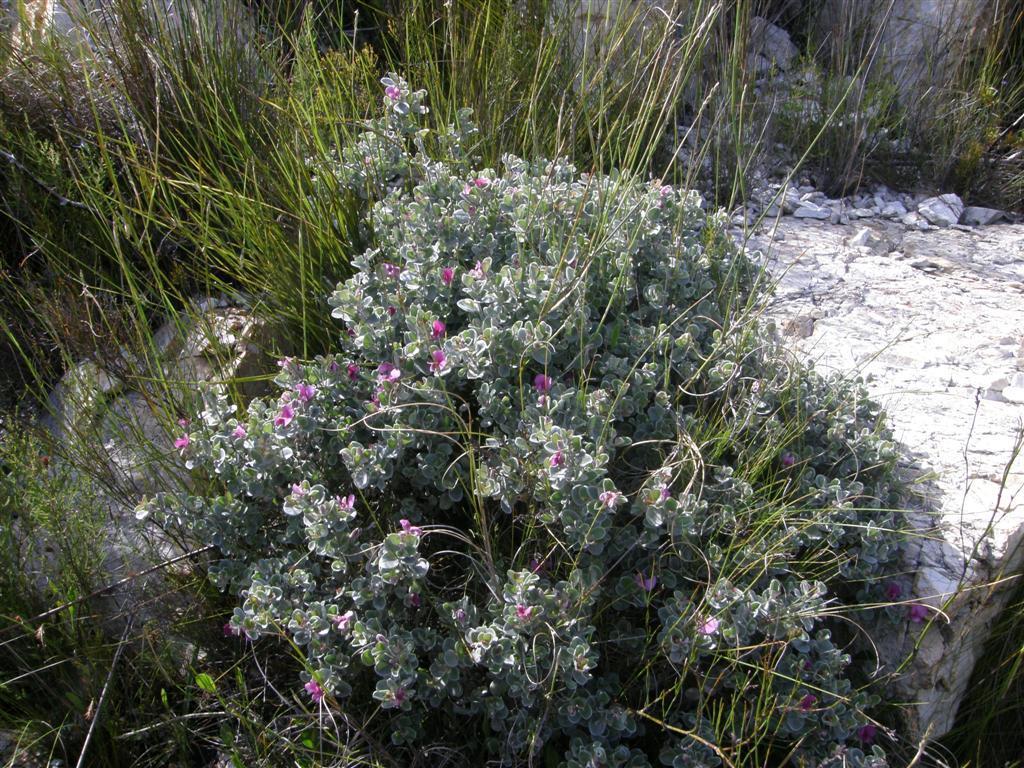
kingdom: Plantae
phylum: Tracheophyta
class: Magnoliopsida
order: Fabales
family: Fabaceae
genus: Podalyria
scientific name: Podalyria hirsuta
